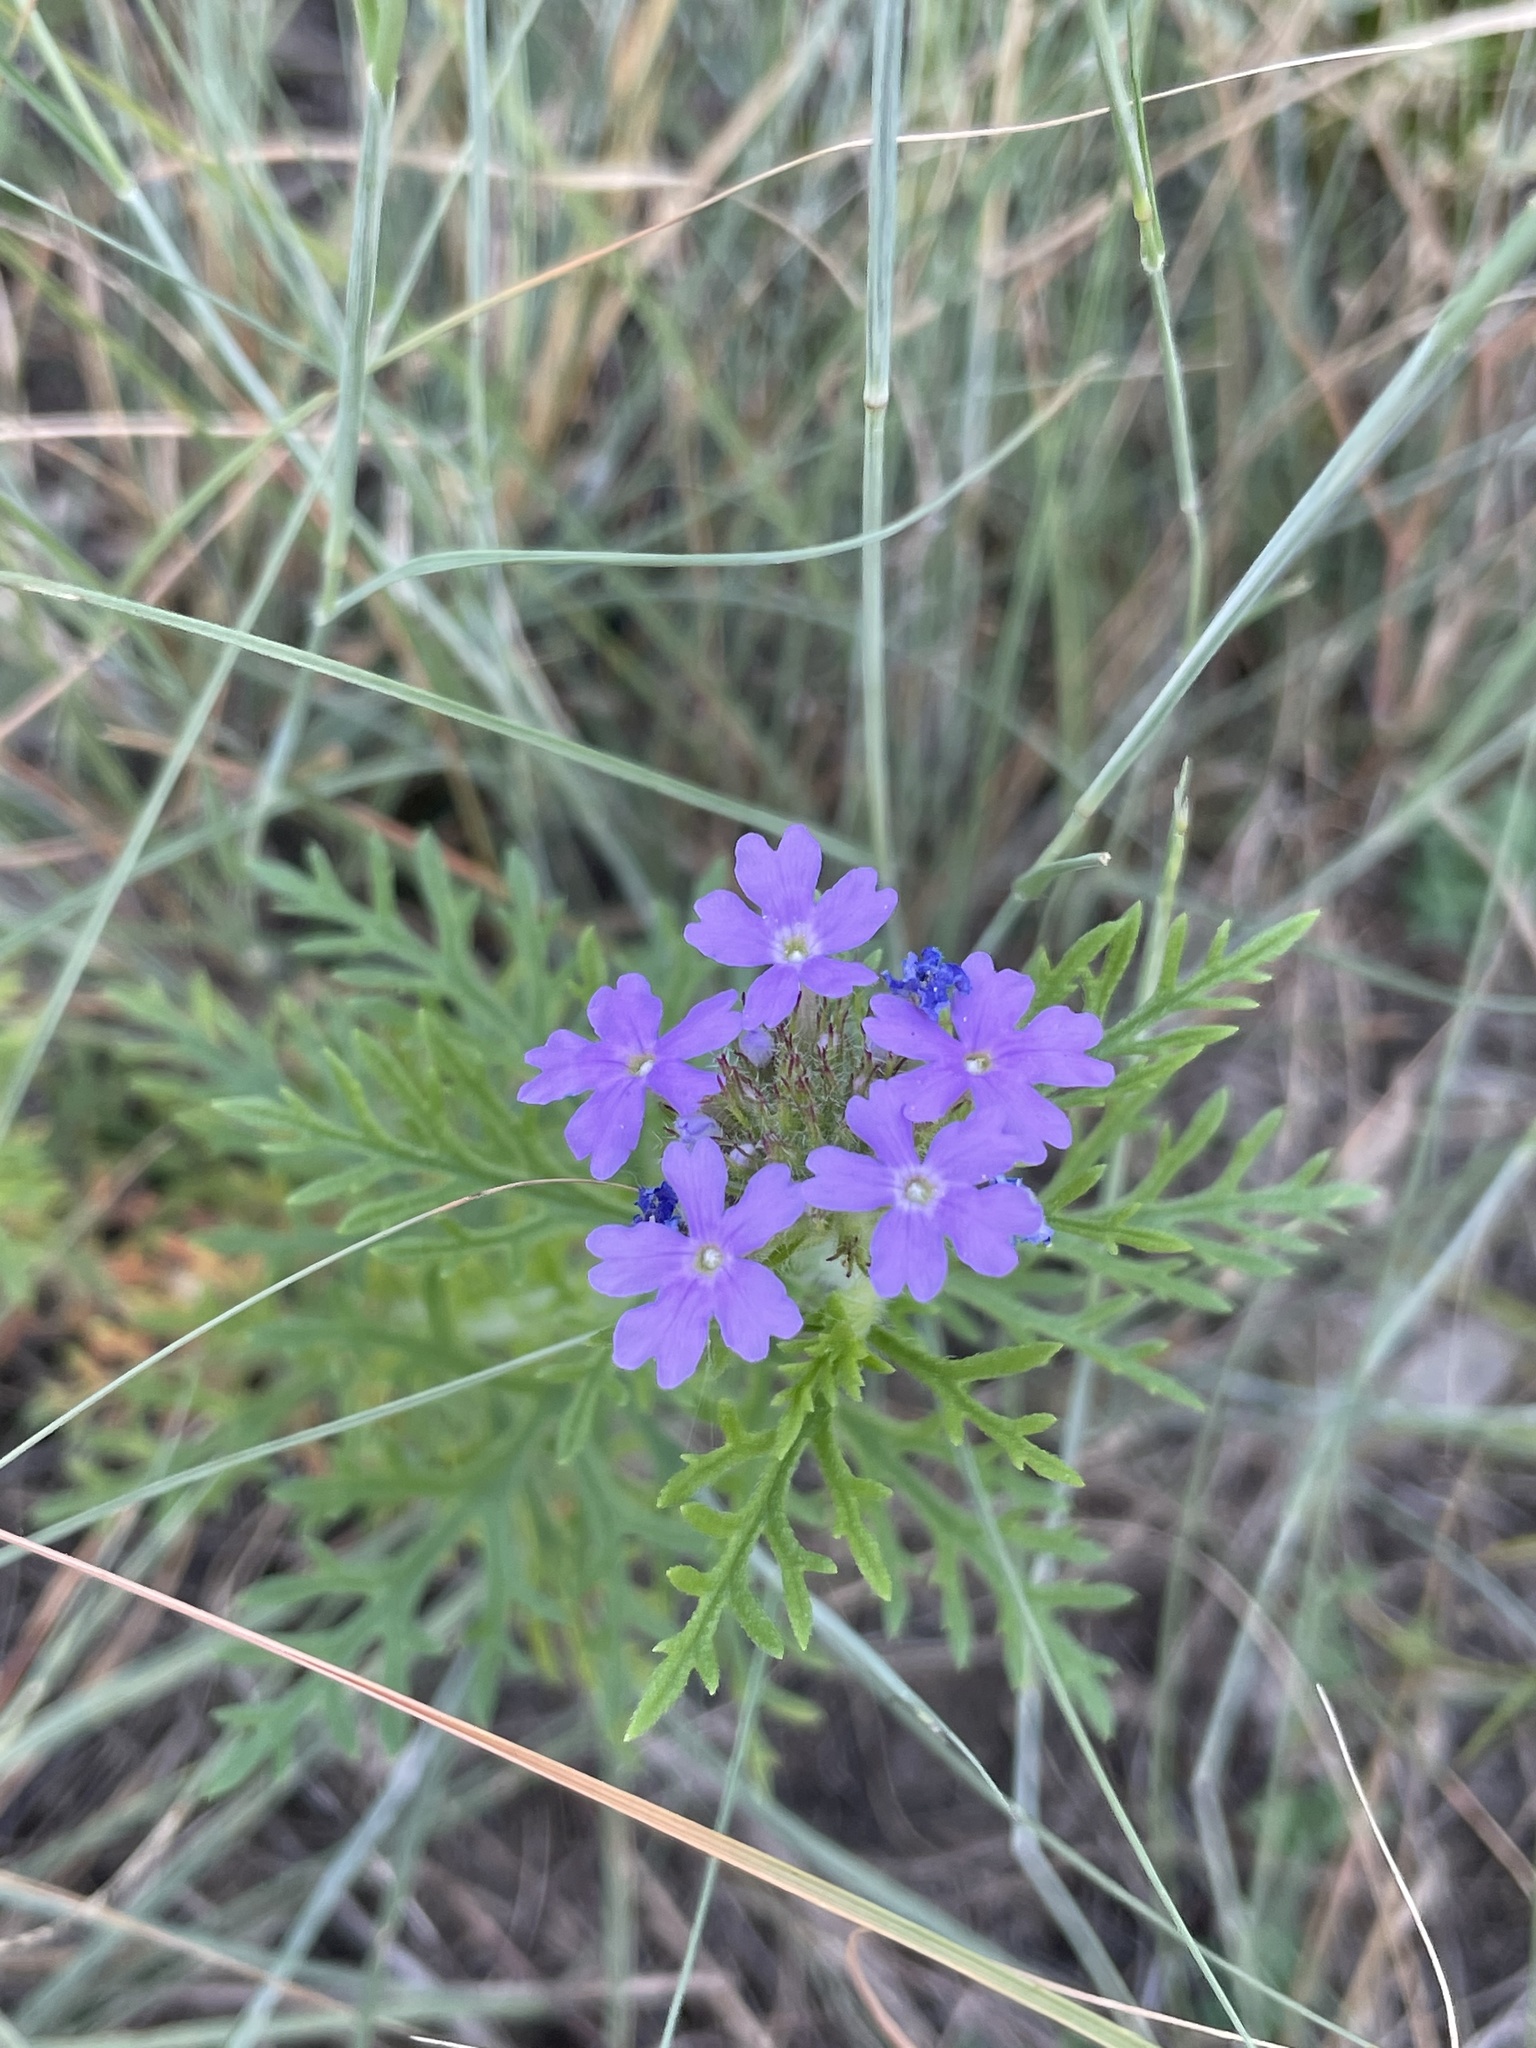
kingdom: Plantae
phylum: Tracheophyta
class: Magnoliopsida
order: Lamiales
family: Verbenaceae
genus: Verbena
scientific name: Verbena bipinnatifida
